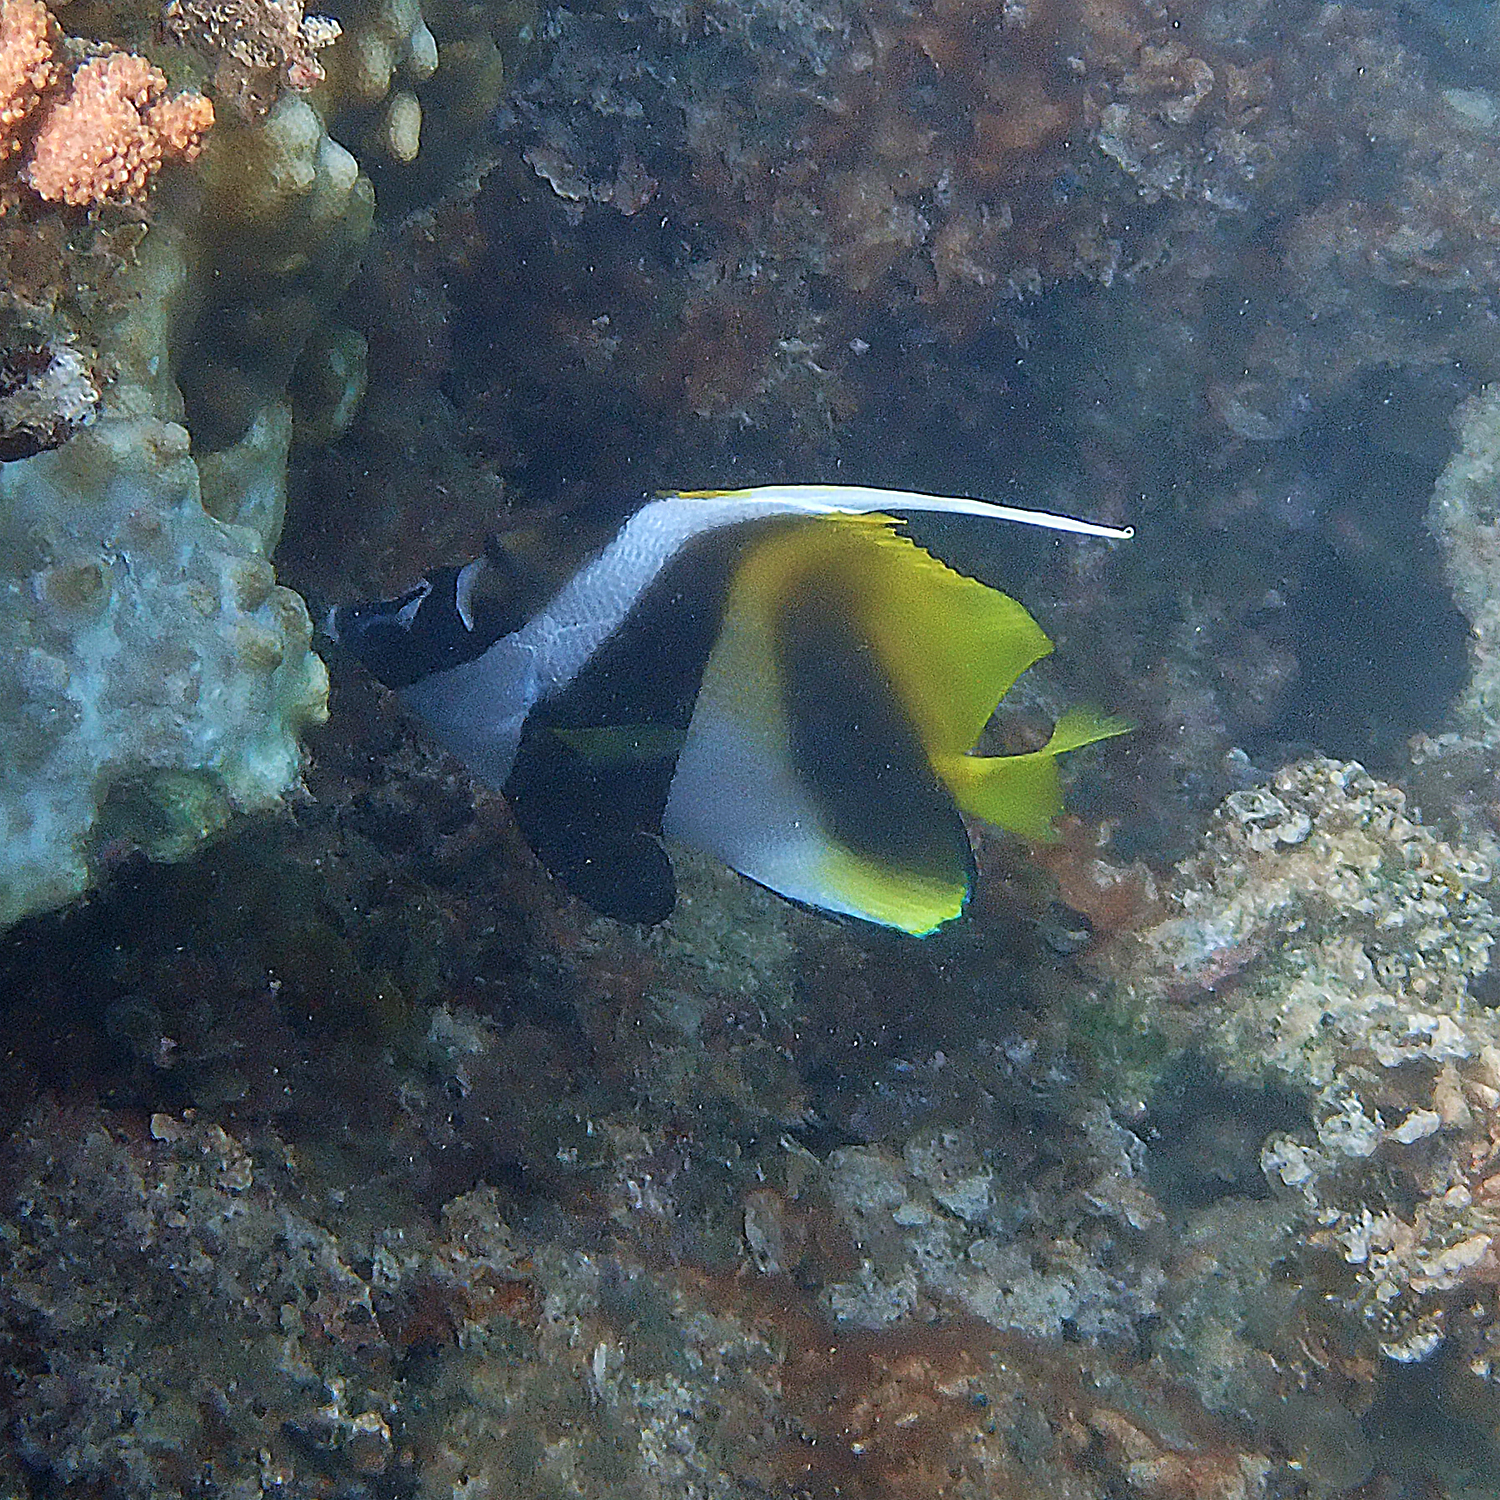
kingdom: Animalia
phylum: Chordata
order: Perciformes
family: Chaetodontidae
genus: Heniochus
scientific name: Heniochus monoceros
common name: Masked bannerfish
